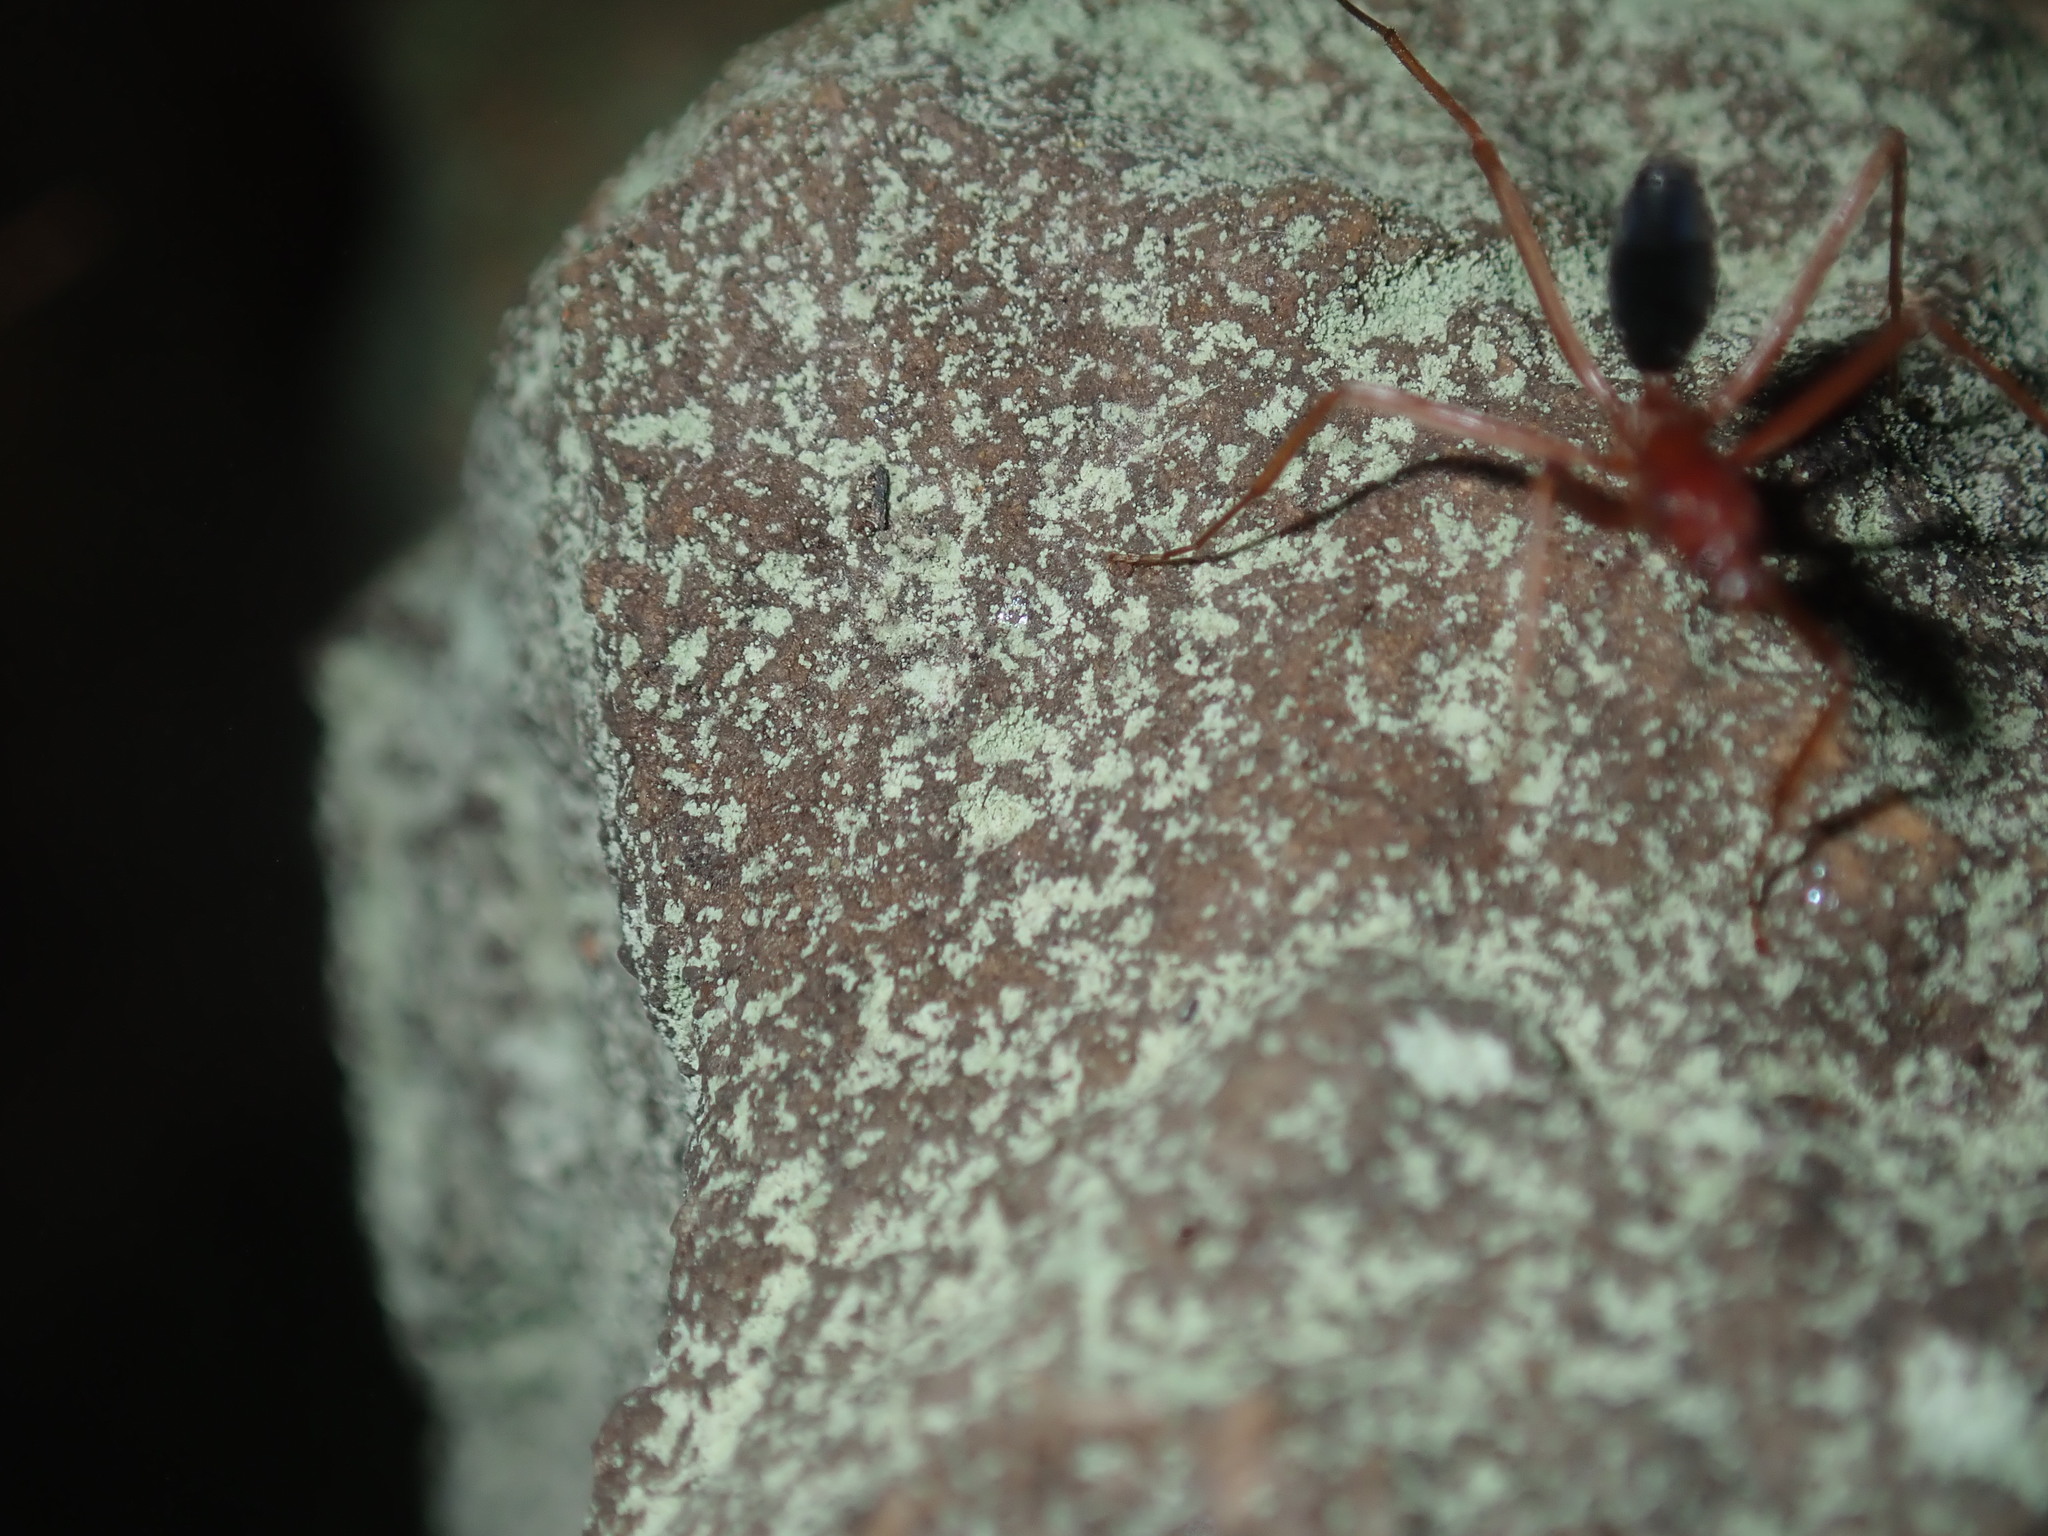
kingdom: Animalia
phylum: Arthropoda
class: Insecta
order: Hymenoptera
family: Formicidae
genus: Leptomyrmex
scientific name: Leptomyrmex nigriventris
